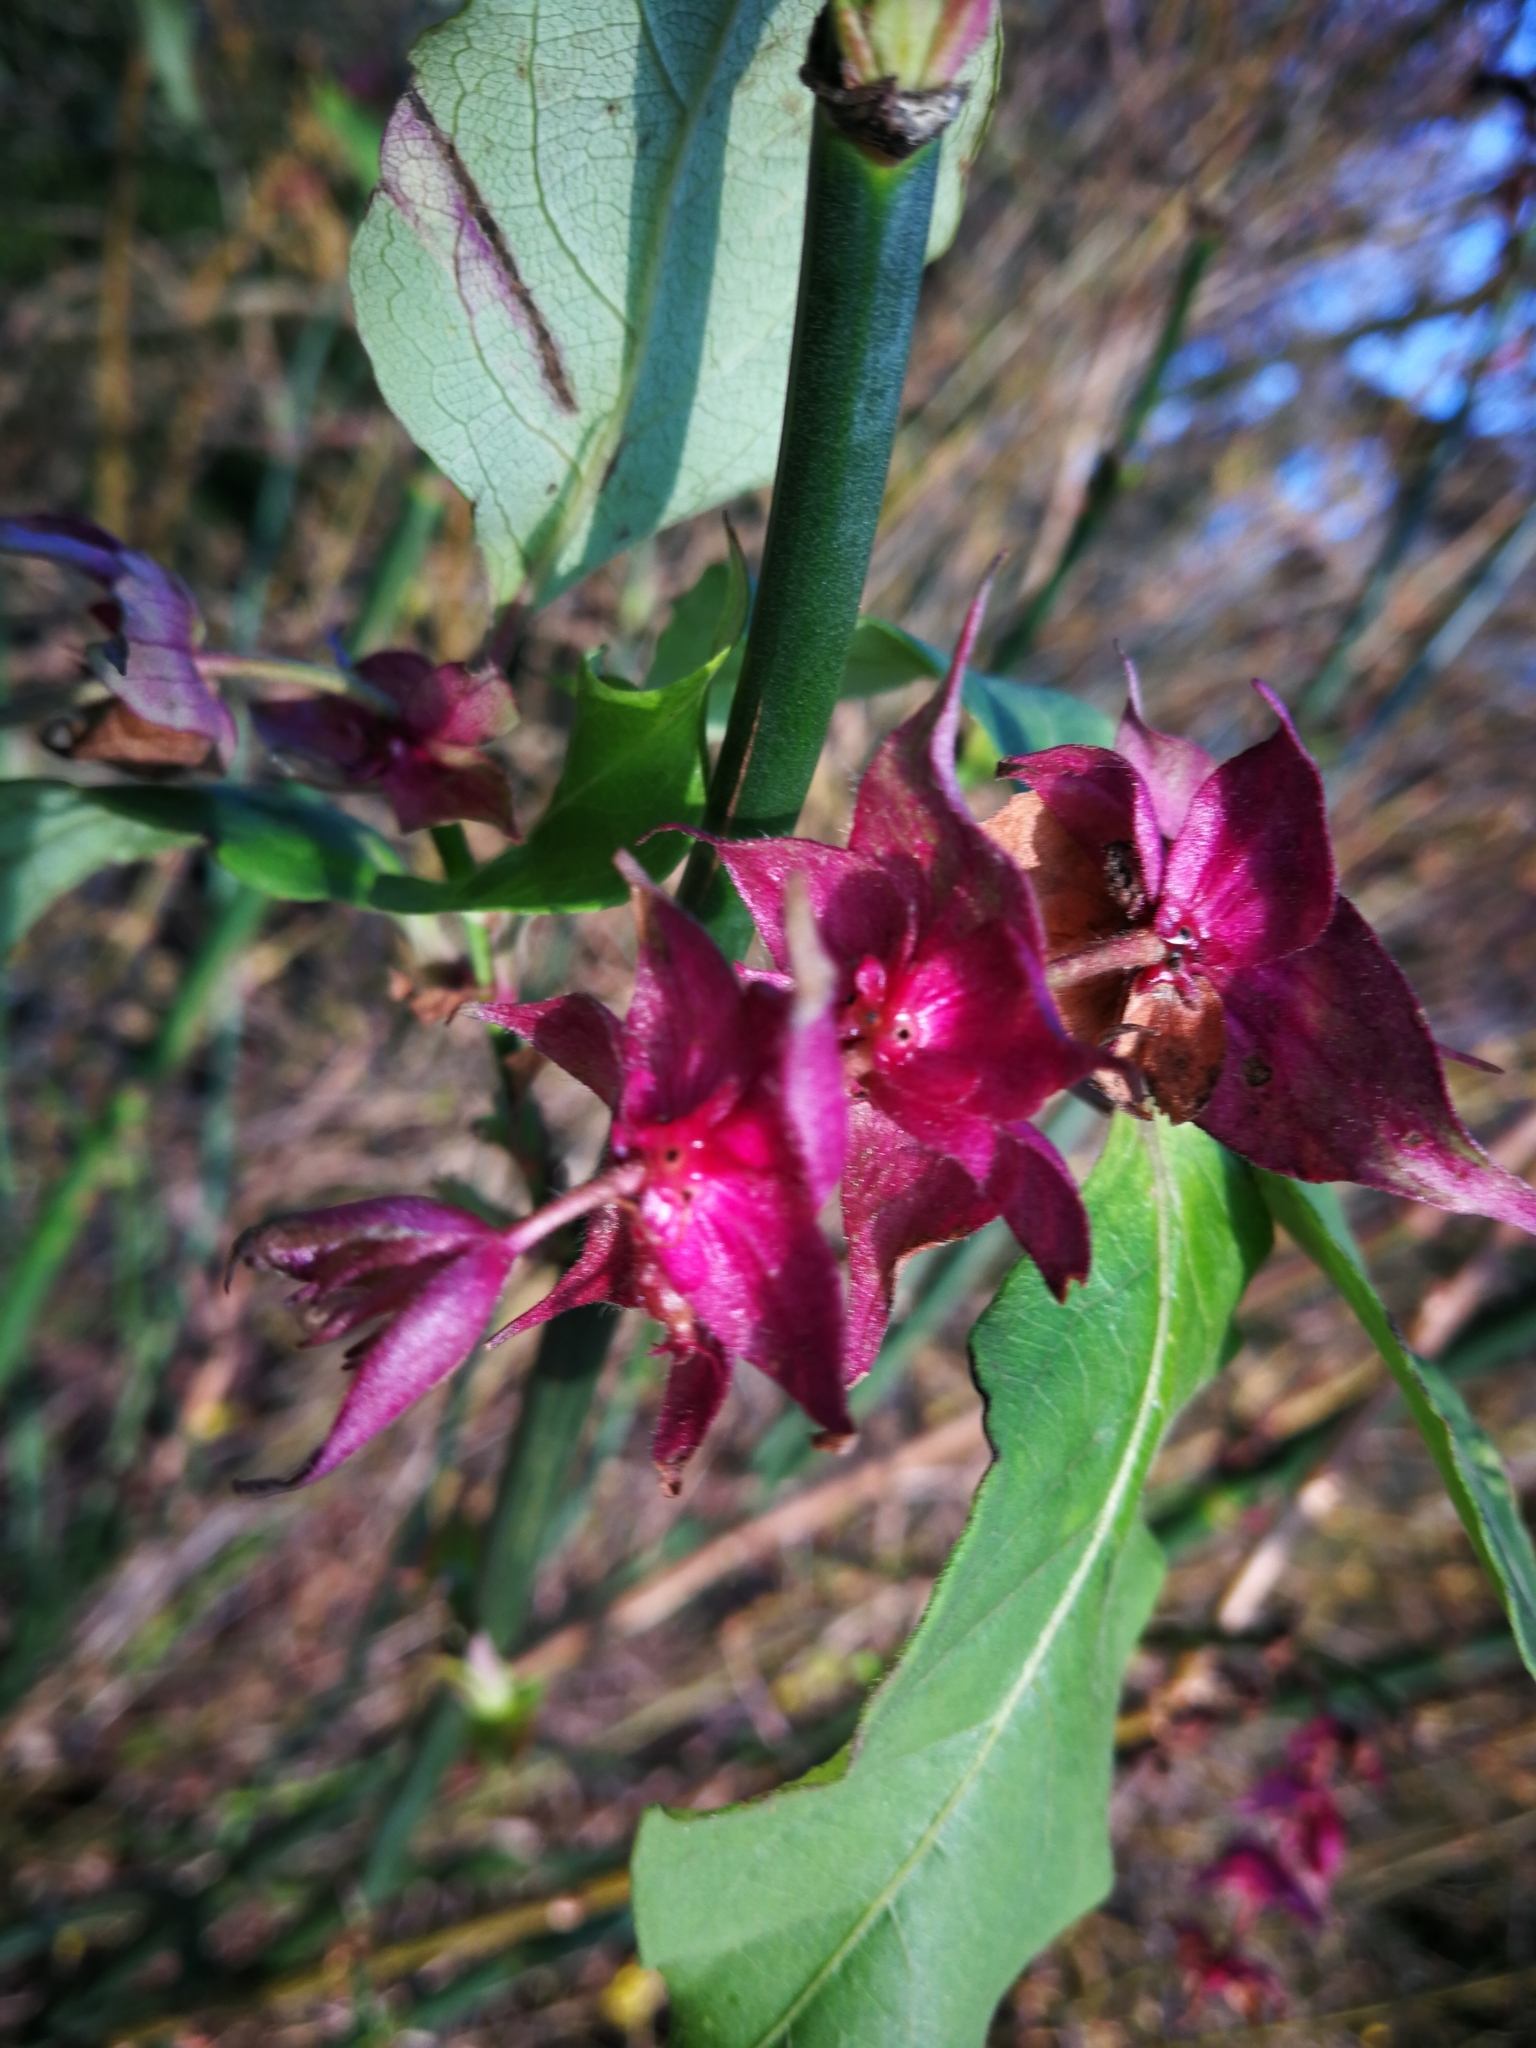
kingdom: Plantae
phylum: Tracheophyta
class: Magnoliopsida
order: Dipsacales
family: Caprifoliaceae
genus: Leycesteria
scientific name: Leycesteria formosa
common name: Himalayan honeysuckle
